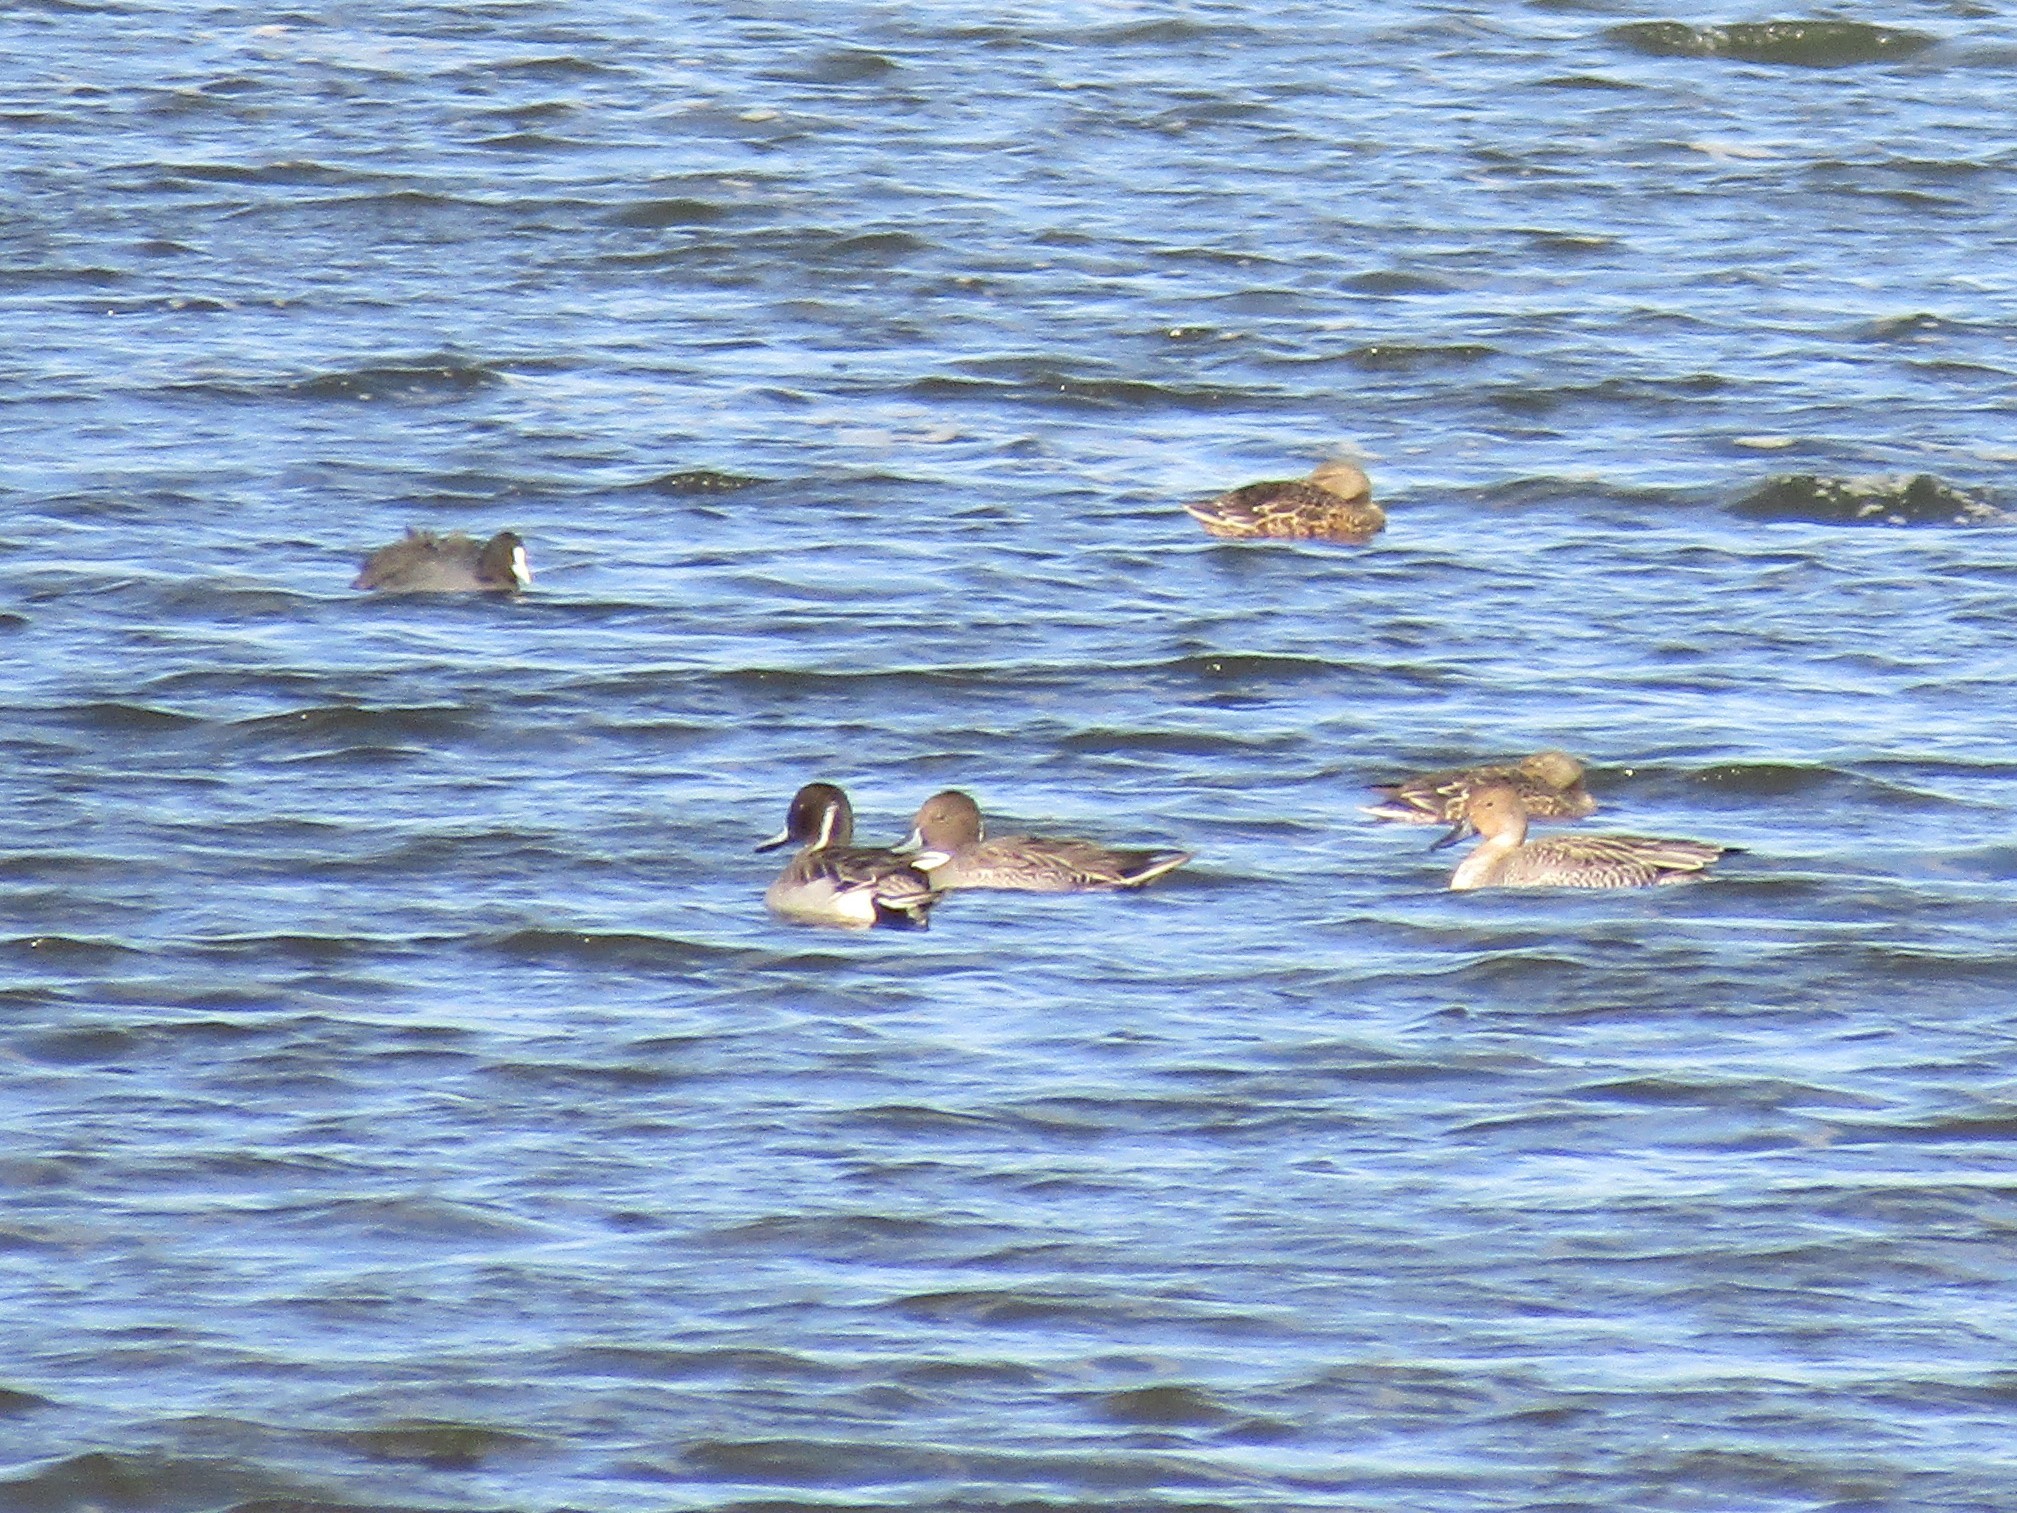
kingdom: Animalia
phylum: Chordata
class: Aves
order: Anseriformes
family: Anatidae
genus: Anas
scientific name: Anas acuta
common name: Northern pintail
